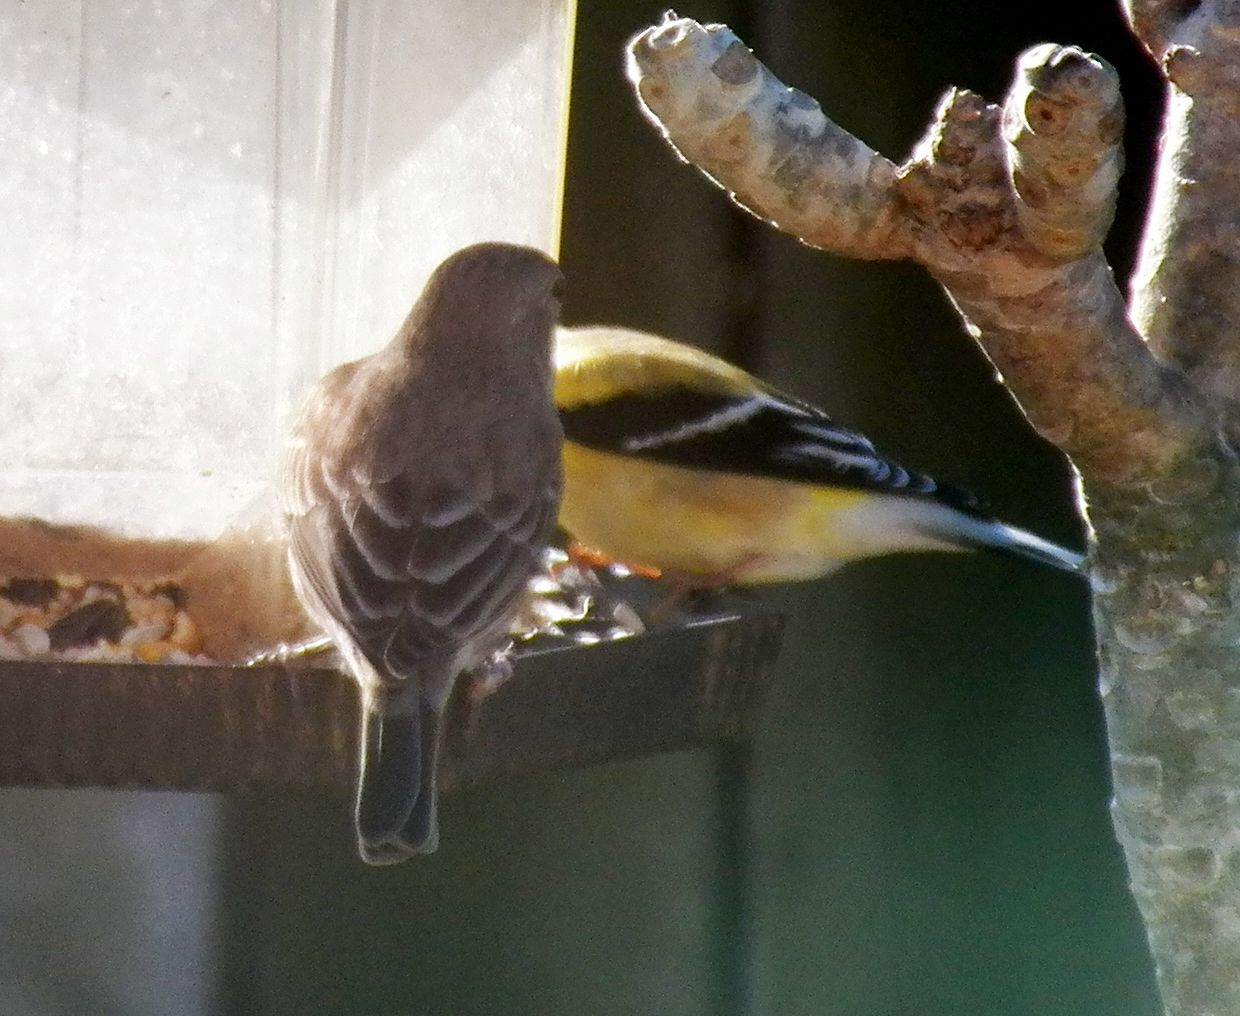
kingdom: Animalia
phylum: Chordata
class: Aves
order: Passeriformes
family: Fringillidae
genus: Spinus
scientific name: Spinus tristis
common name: American goldfinch
